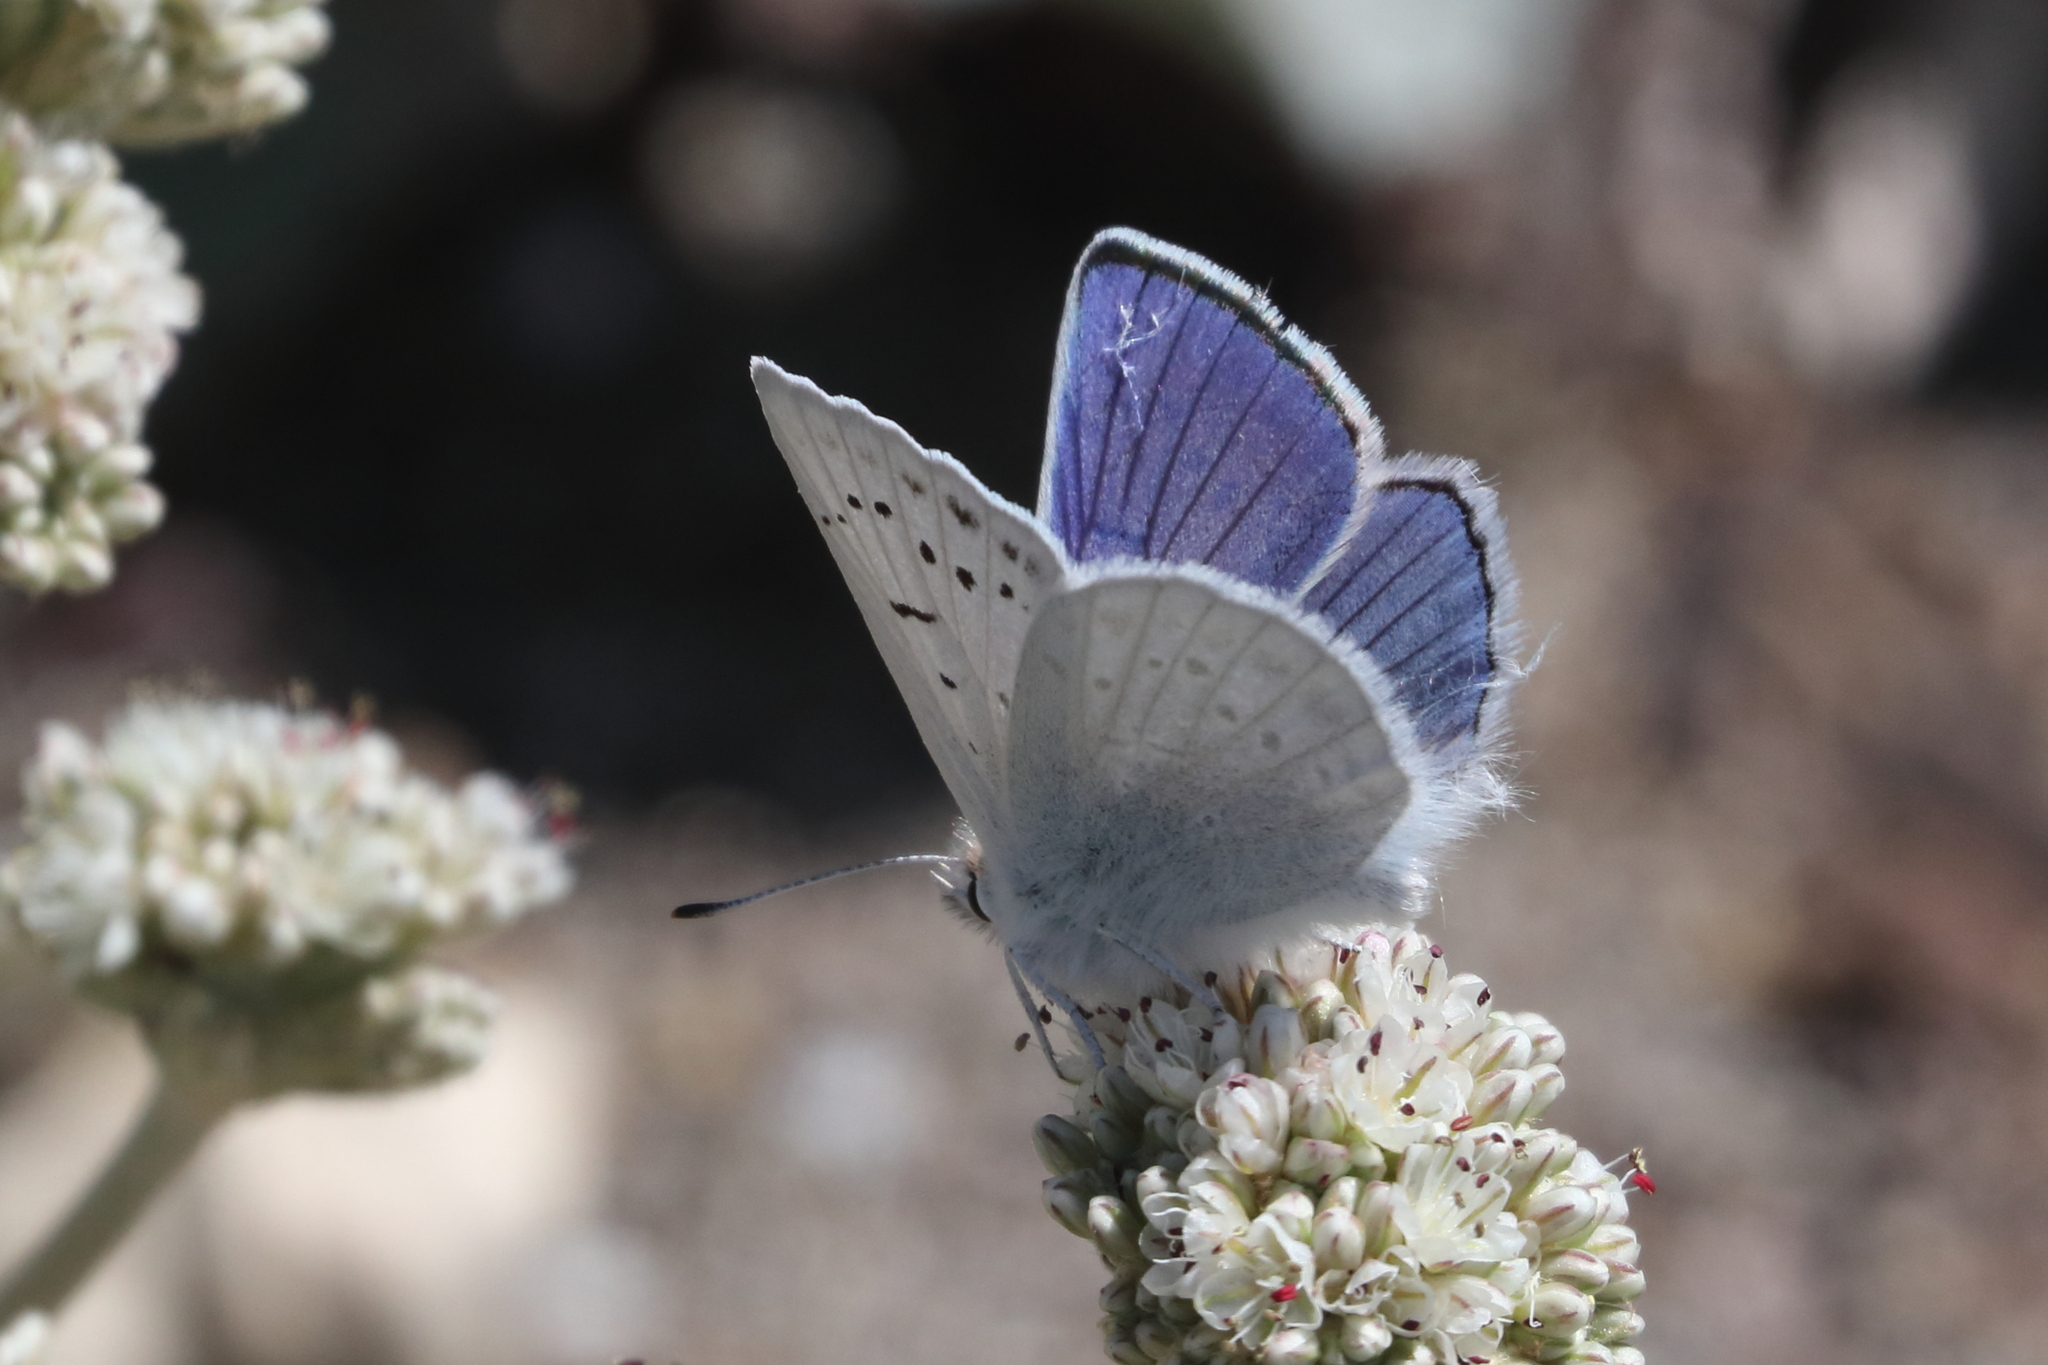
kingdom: Animalia
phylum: Arthropoda
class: Insecta
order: Lepidoptera
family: Lycaenidae
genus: Tharsalea
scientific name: Tharsalea heteronea
